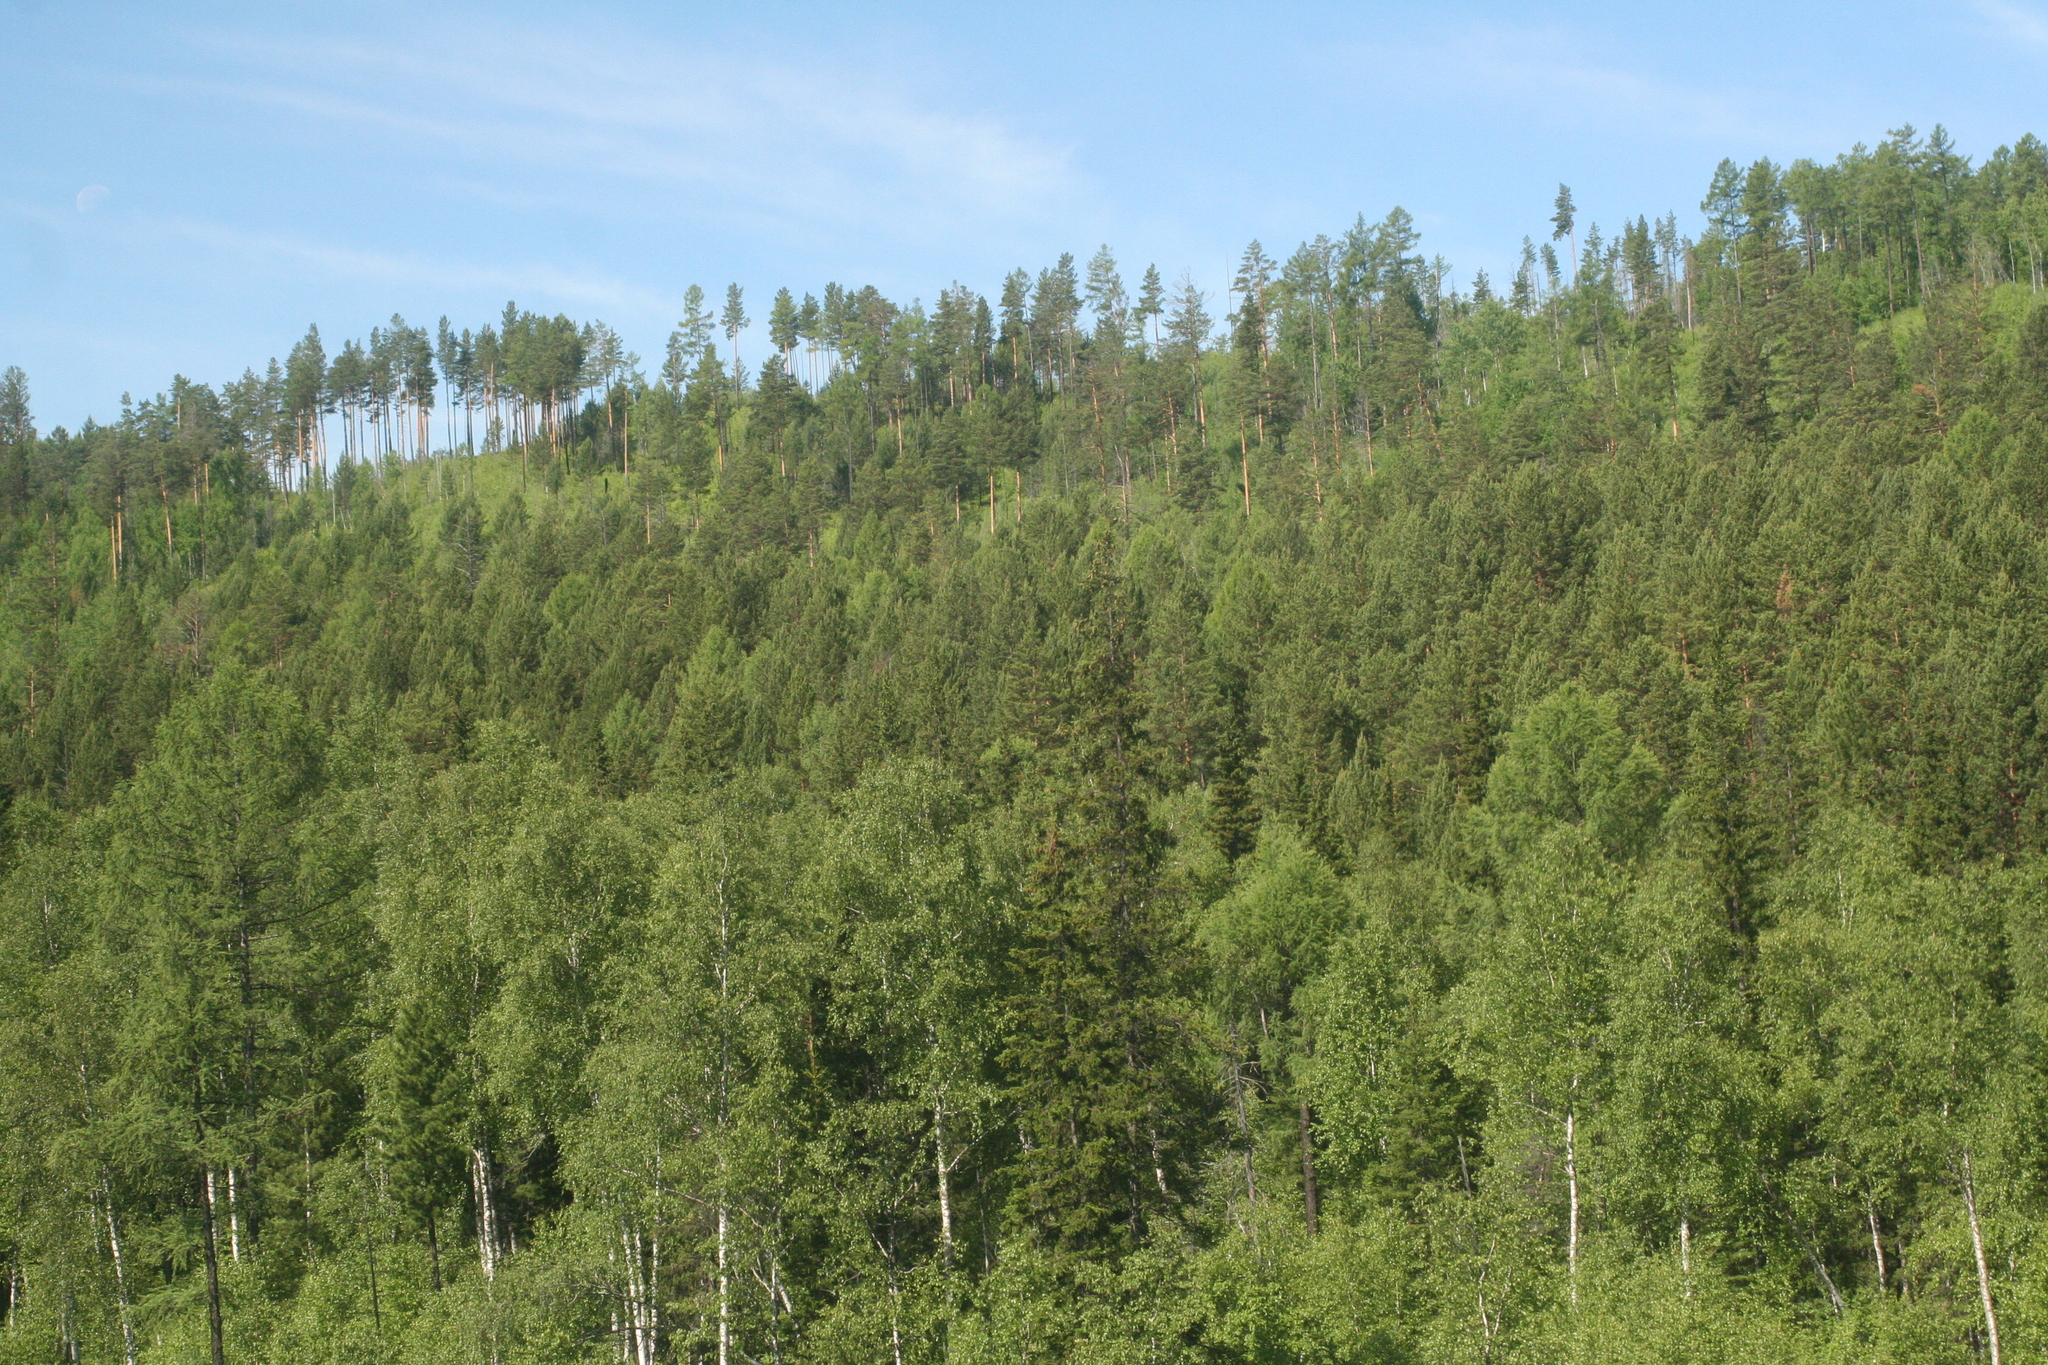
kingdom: Plantae
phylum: Tracheophyta
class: Pinopsida
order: Pinales
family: Pinaceae
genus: Pinus
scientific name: Pinus sylvestris
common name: Scots pine
